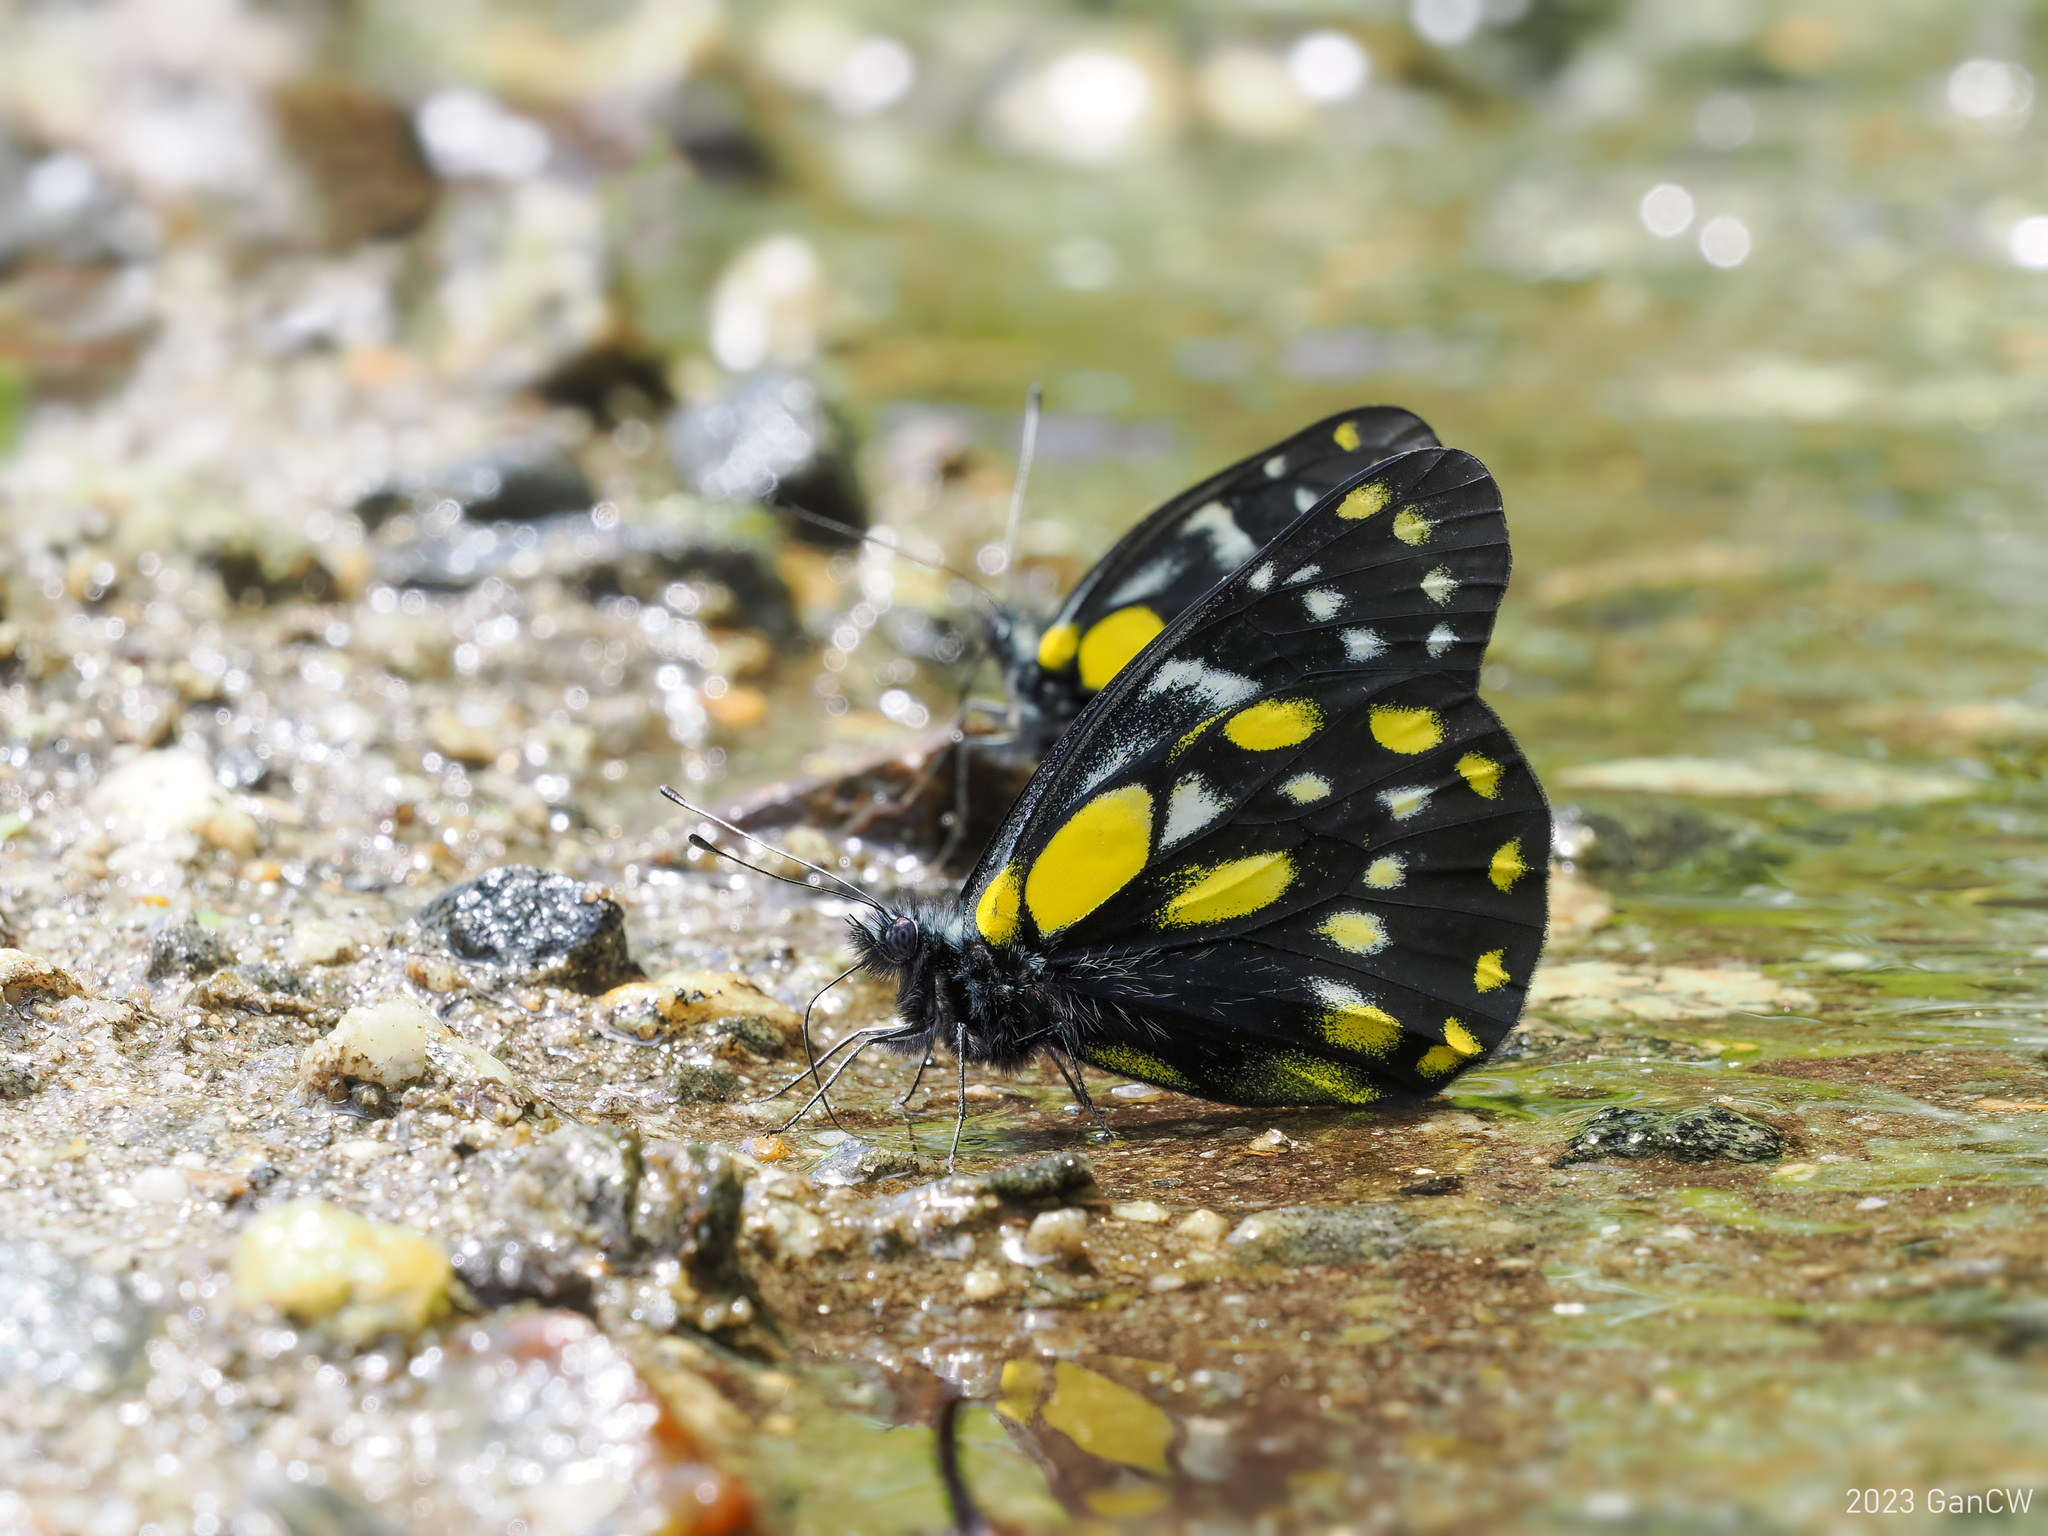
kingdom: Animalia
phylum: Arthropoda
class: Insecta
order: Lepidoptera
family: Pieridae
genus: Delias
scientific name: Delias belladonna
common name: Hill jezebel
